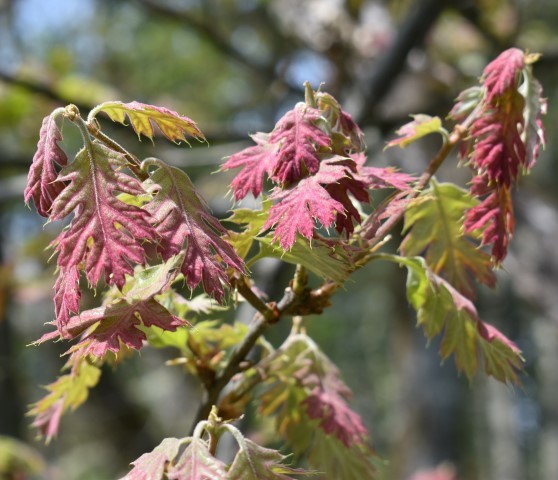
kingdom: Plantae
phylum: Tracheophyta
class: Magnoliopsida
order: Fagales
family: Fagaceae
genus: Quercus
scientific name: Quercus kelloggii
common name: California black oak
